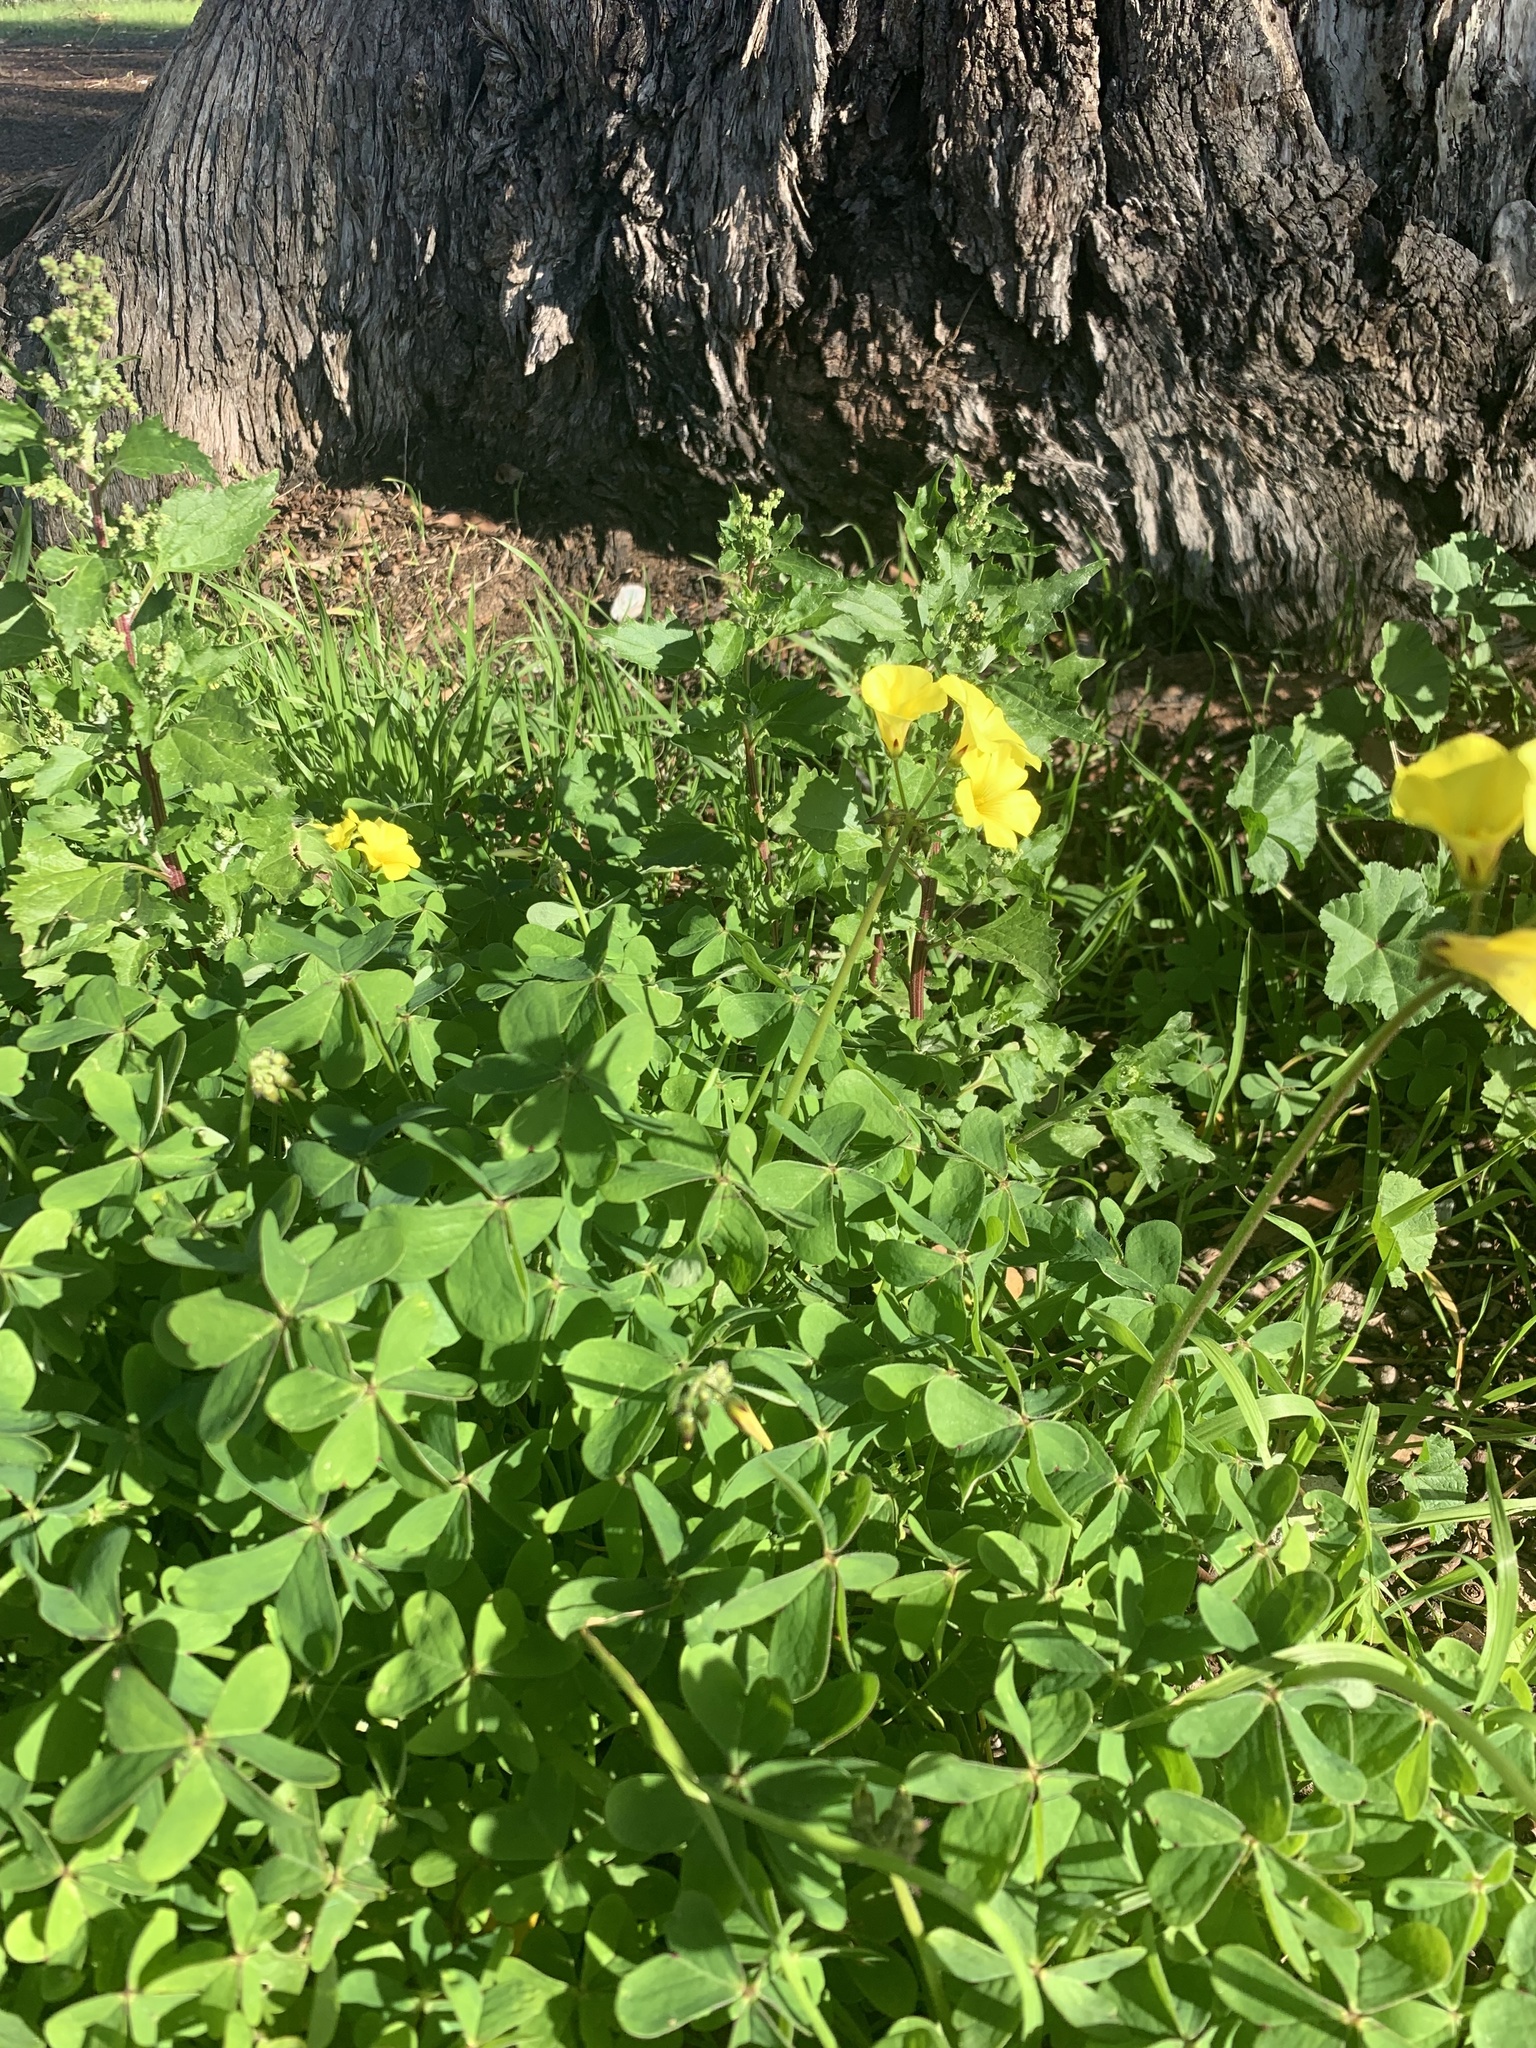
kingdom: Plantae
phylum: Tracheophyta
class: Magnoliopsida
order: Oxalidales
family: Oxalidaceae
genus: Oxalis
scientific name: Oxalis pes-caprae
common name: Bermuda-buttercup
